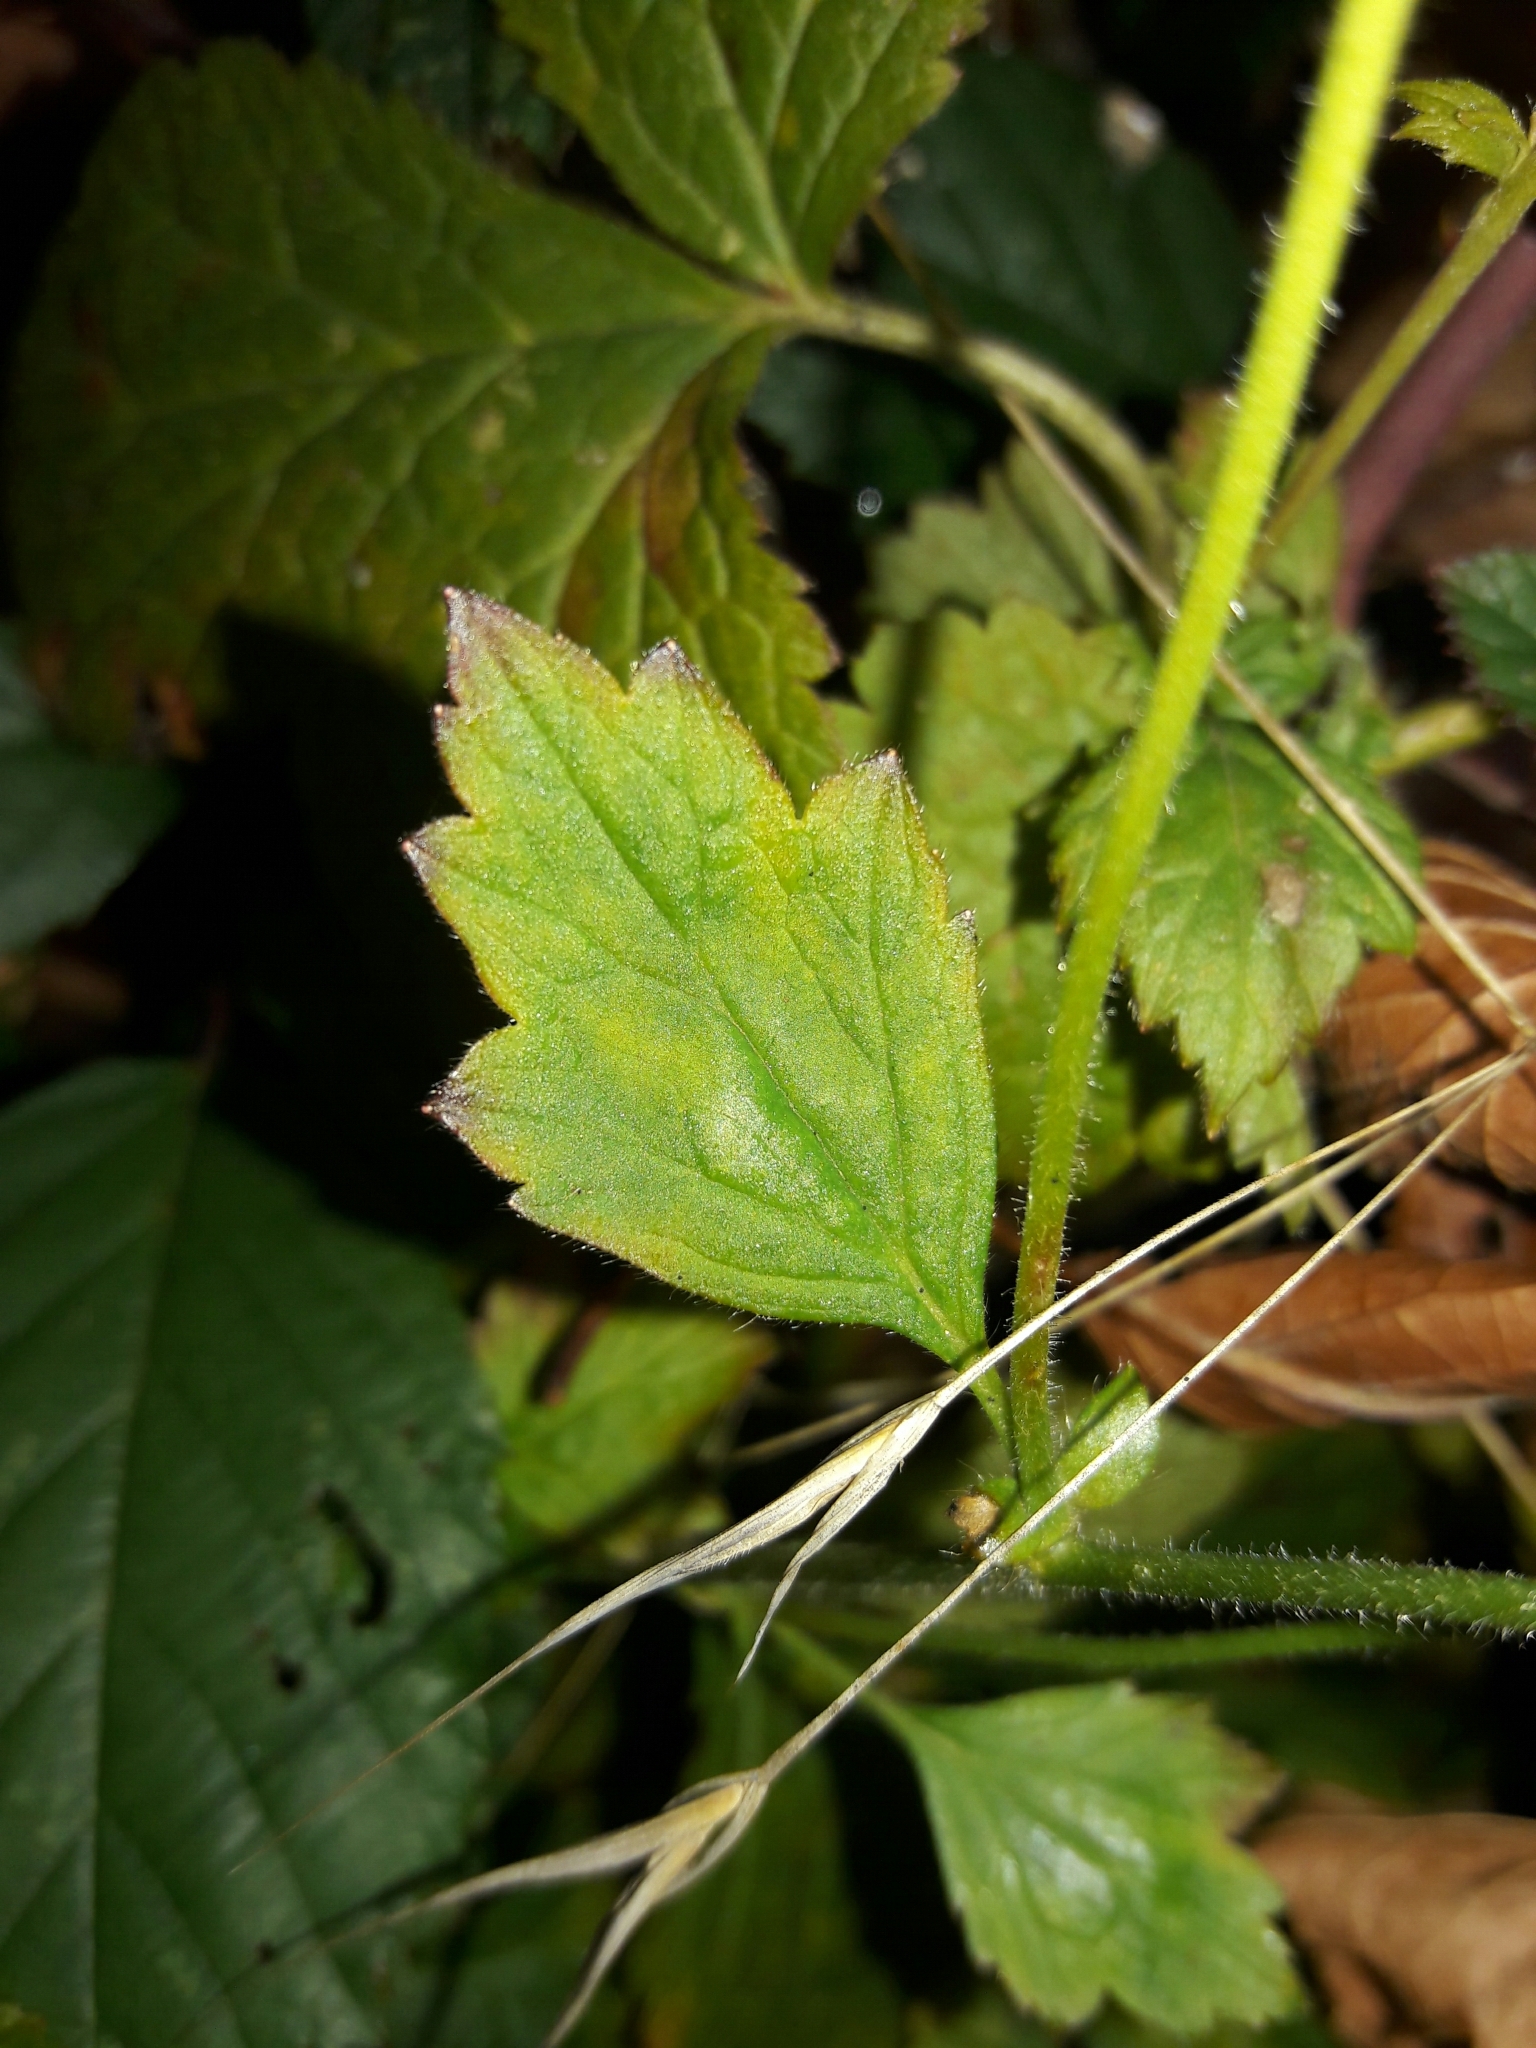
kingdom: Plantae
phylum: Tracheophyta
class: Magnoliopsida
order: Rosales
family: Rosaceae
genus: Geum
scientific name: Geum urbanum
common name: Wood avens
